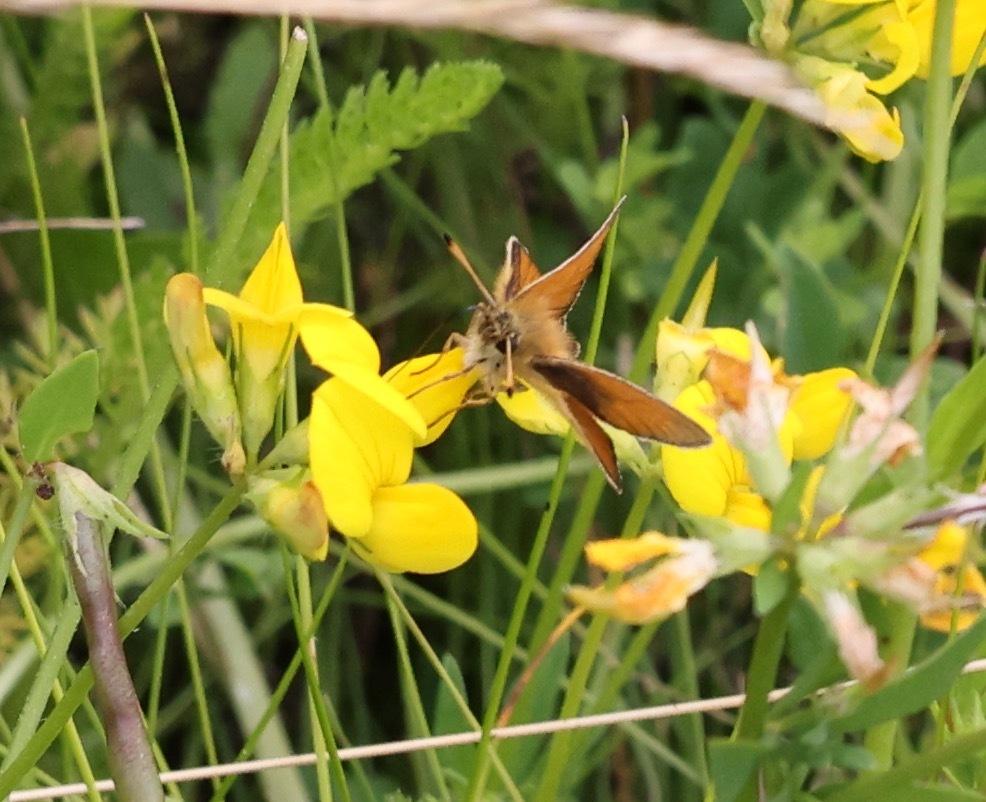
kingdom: Animalia
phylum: Arthropoda
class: Insecta
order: Lepidoptera
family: Hesperiidae
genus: Thymelicus
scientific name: Thymelicus lineola
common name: Essex skipper
